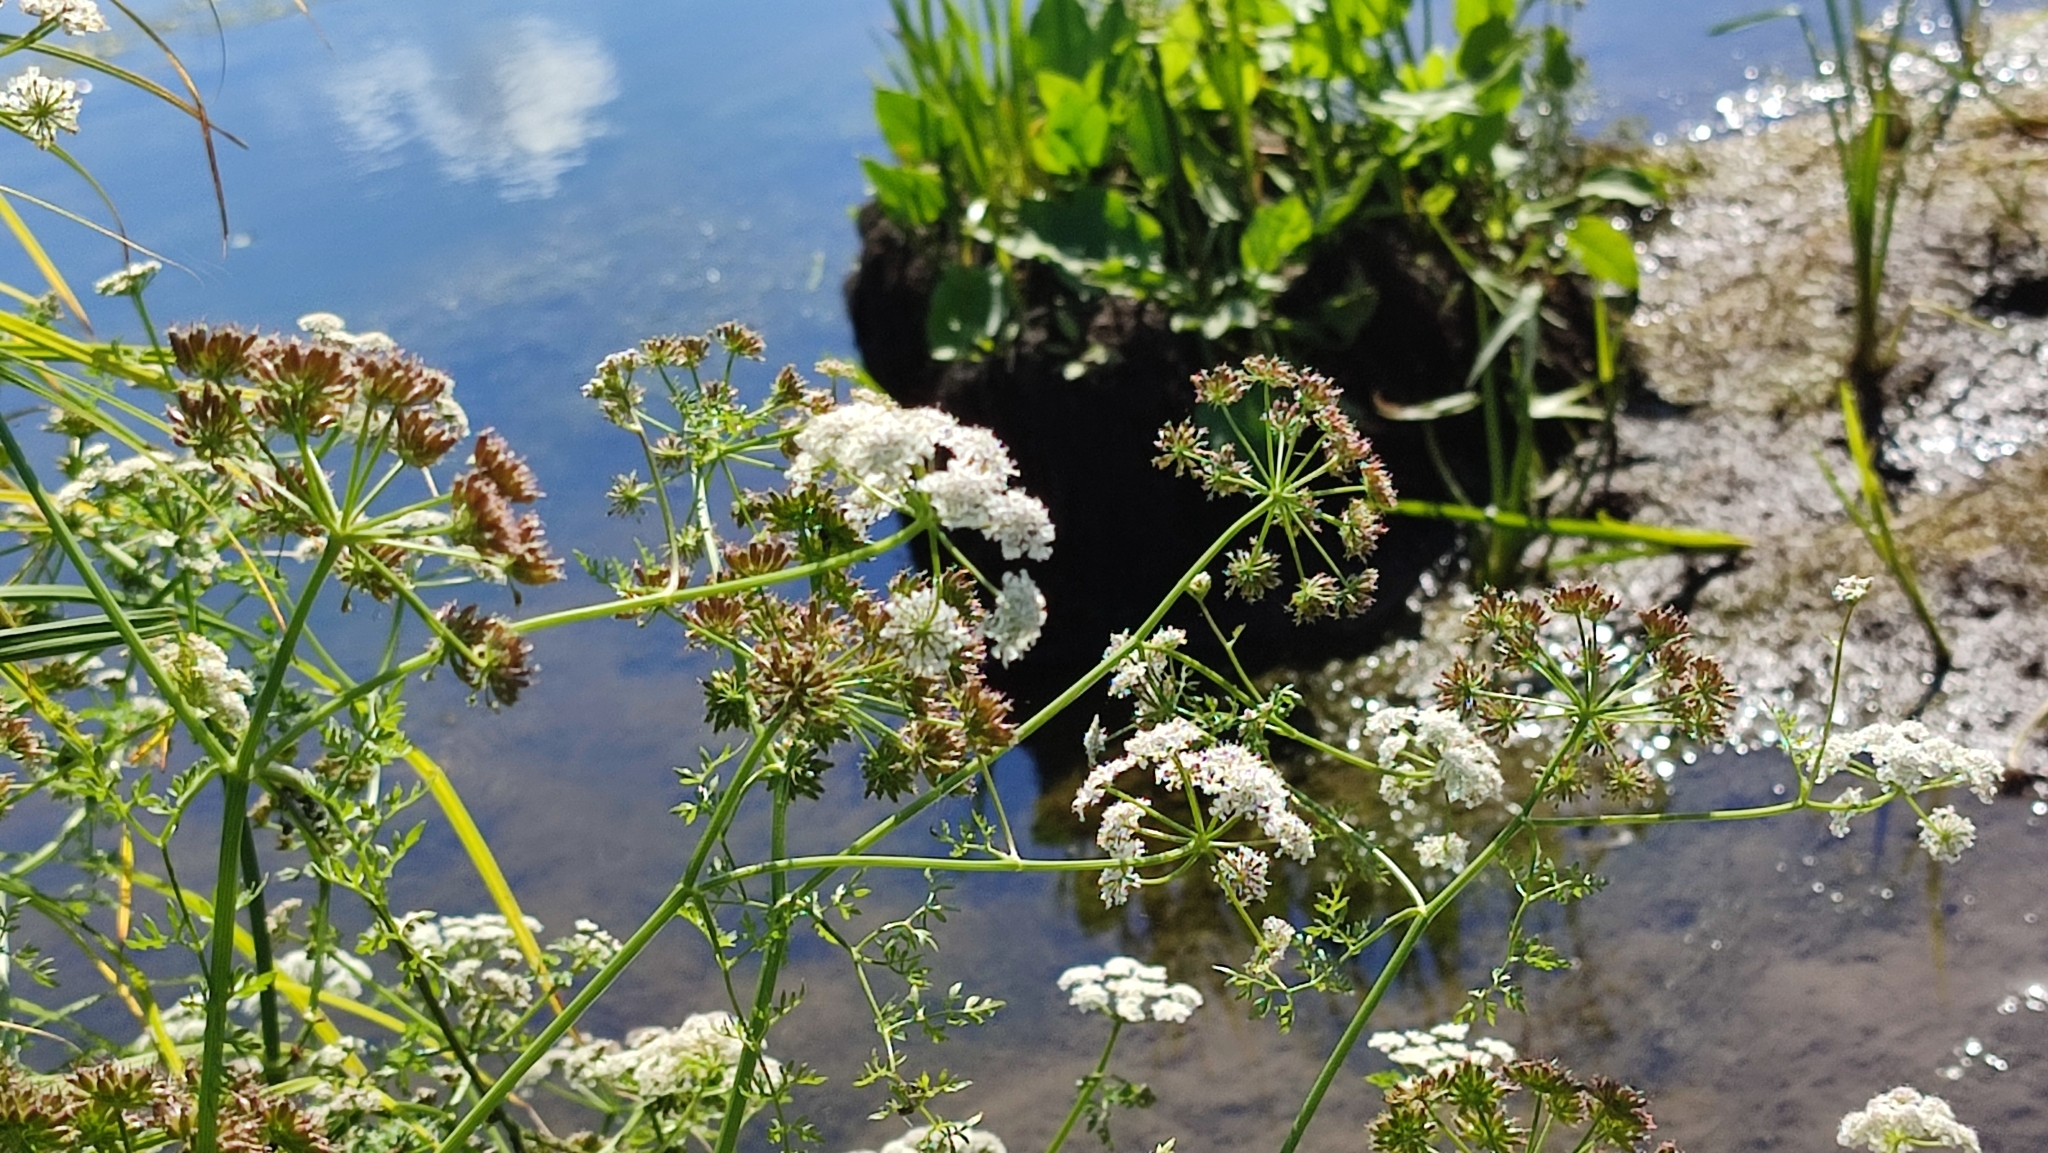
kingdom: Plantae
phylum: Tracheophyta
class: Magnoliopsida
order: Apiales
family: Apiaceae
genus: Oenanthe
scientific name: Oenanthe aquatica
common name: Fine-leaved water-dropwort
